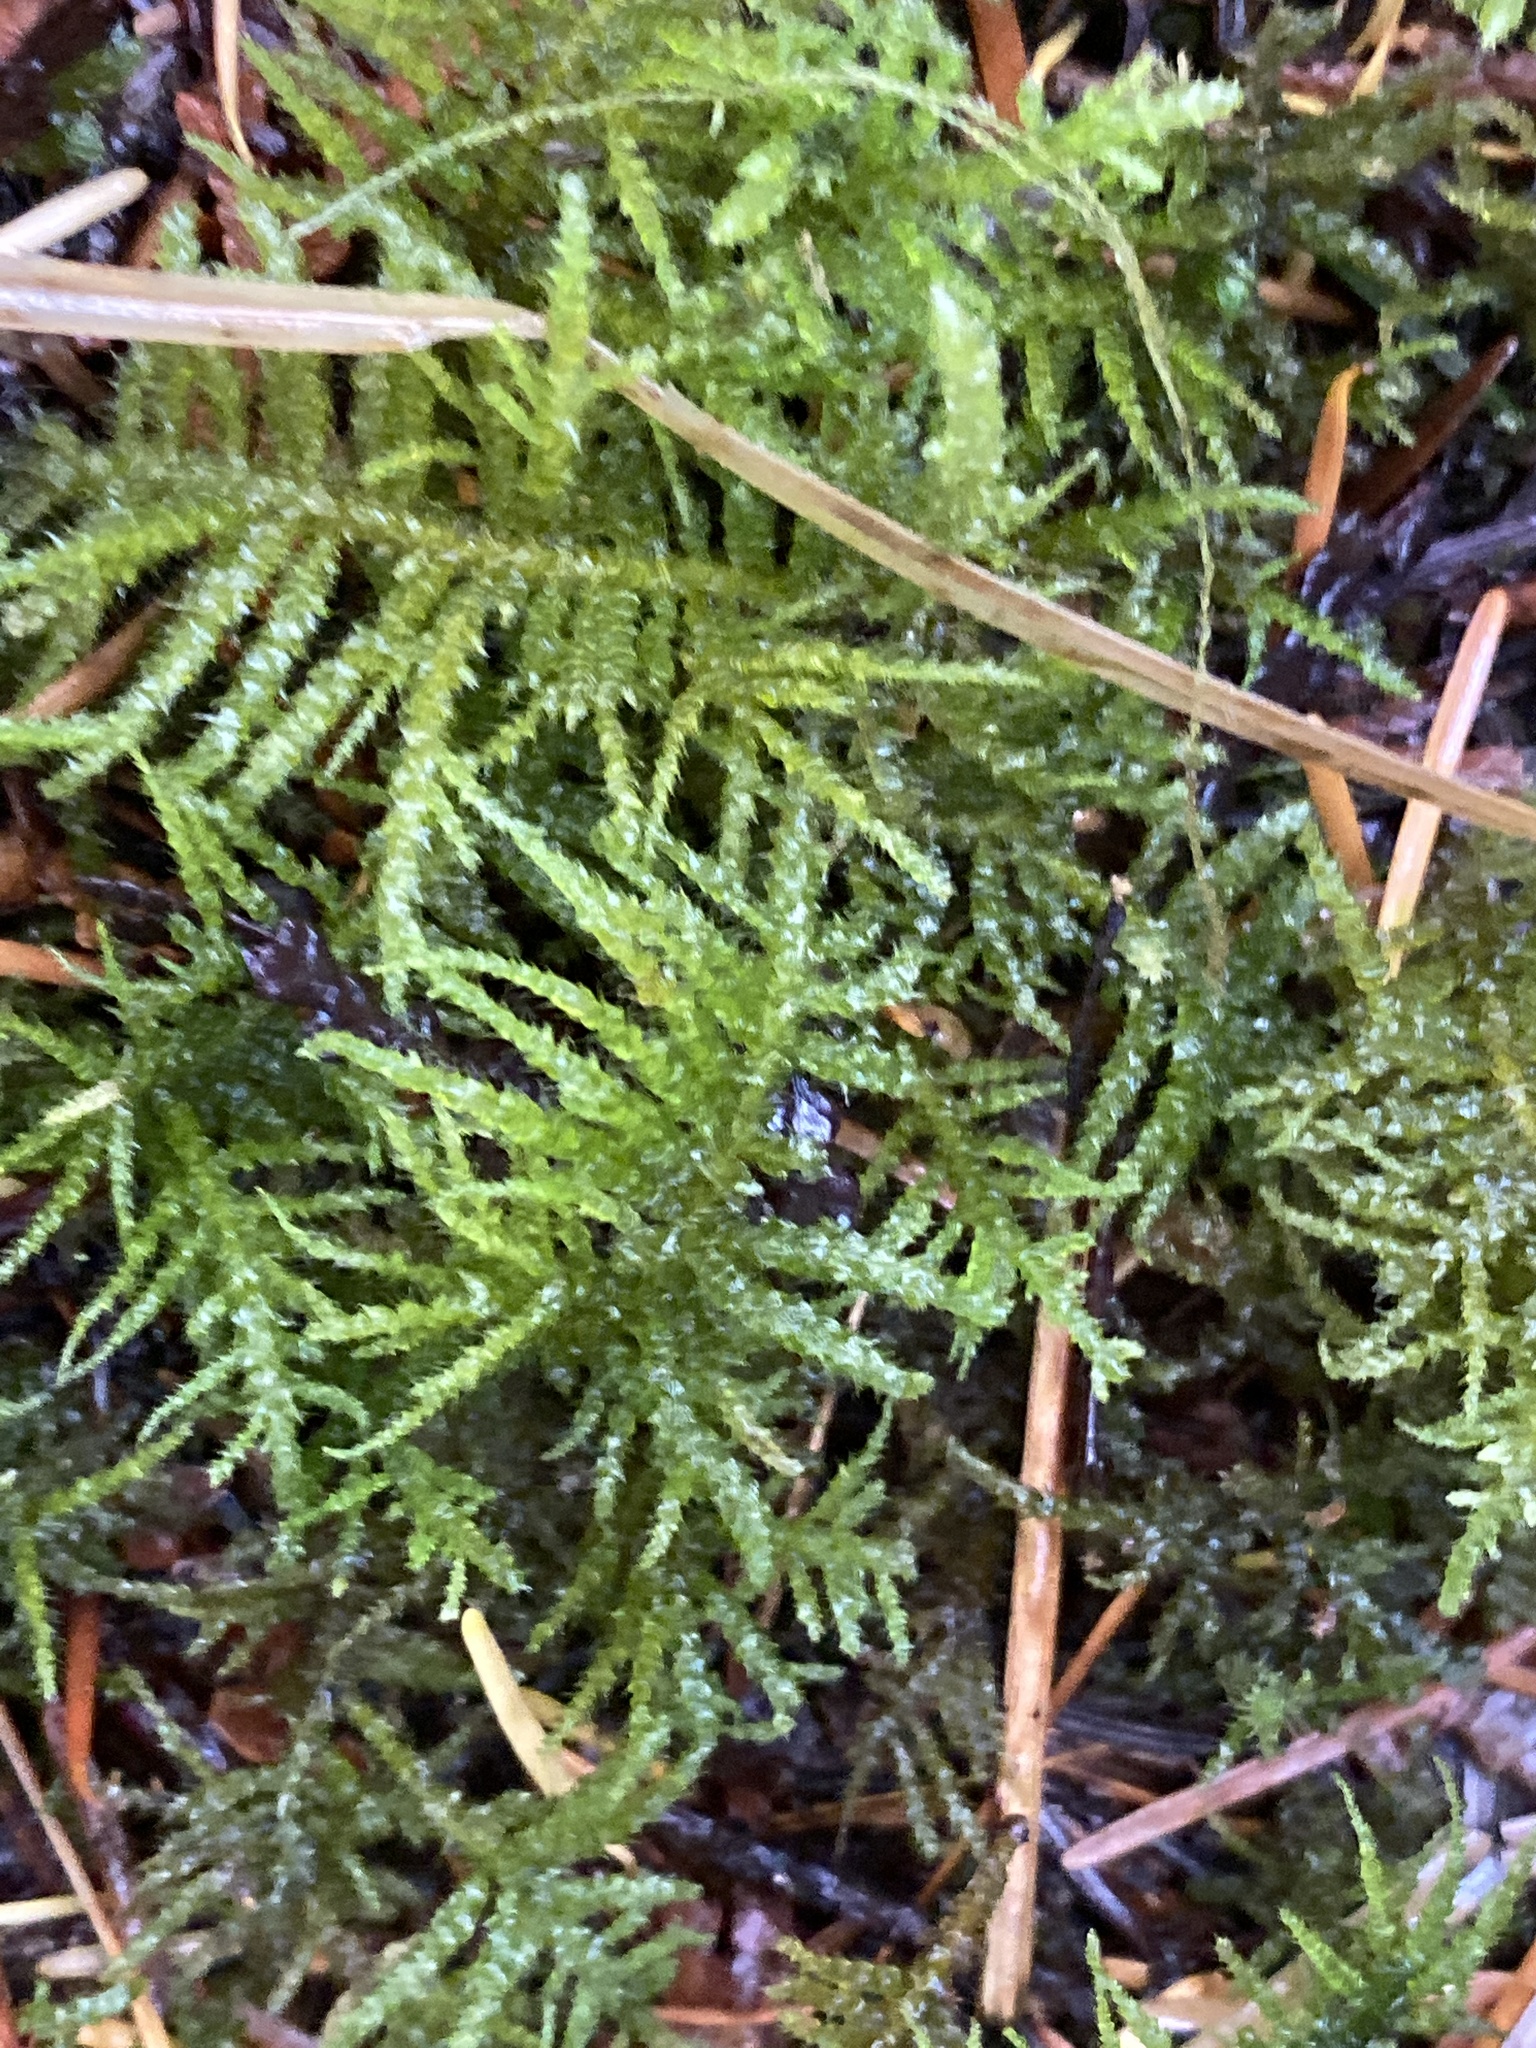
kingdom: Plantae
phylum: Bryophyta
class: Bryopsida
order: Hypnales
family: Brachytheciaceae
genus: Kindbergia
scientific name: Kindbergia oregana
